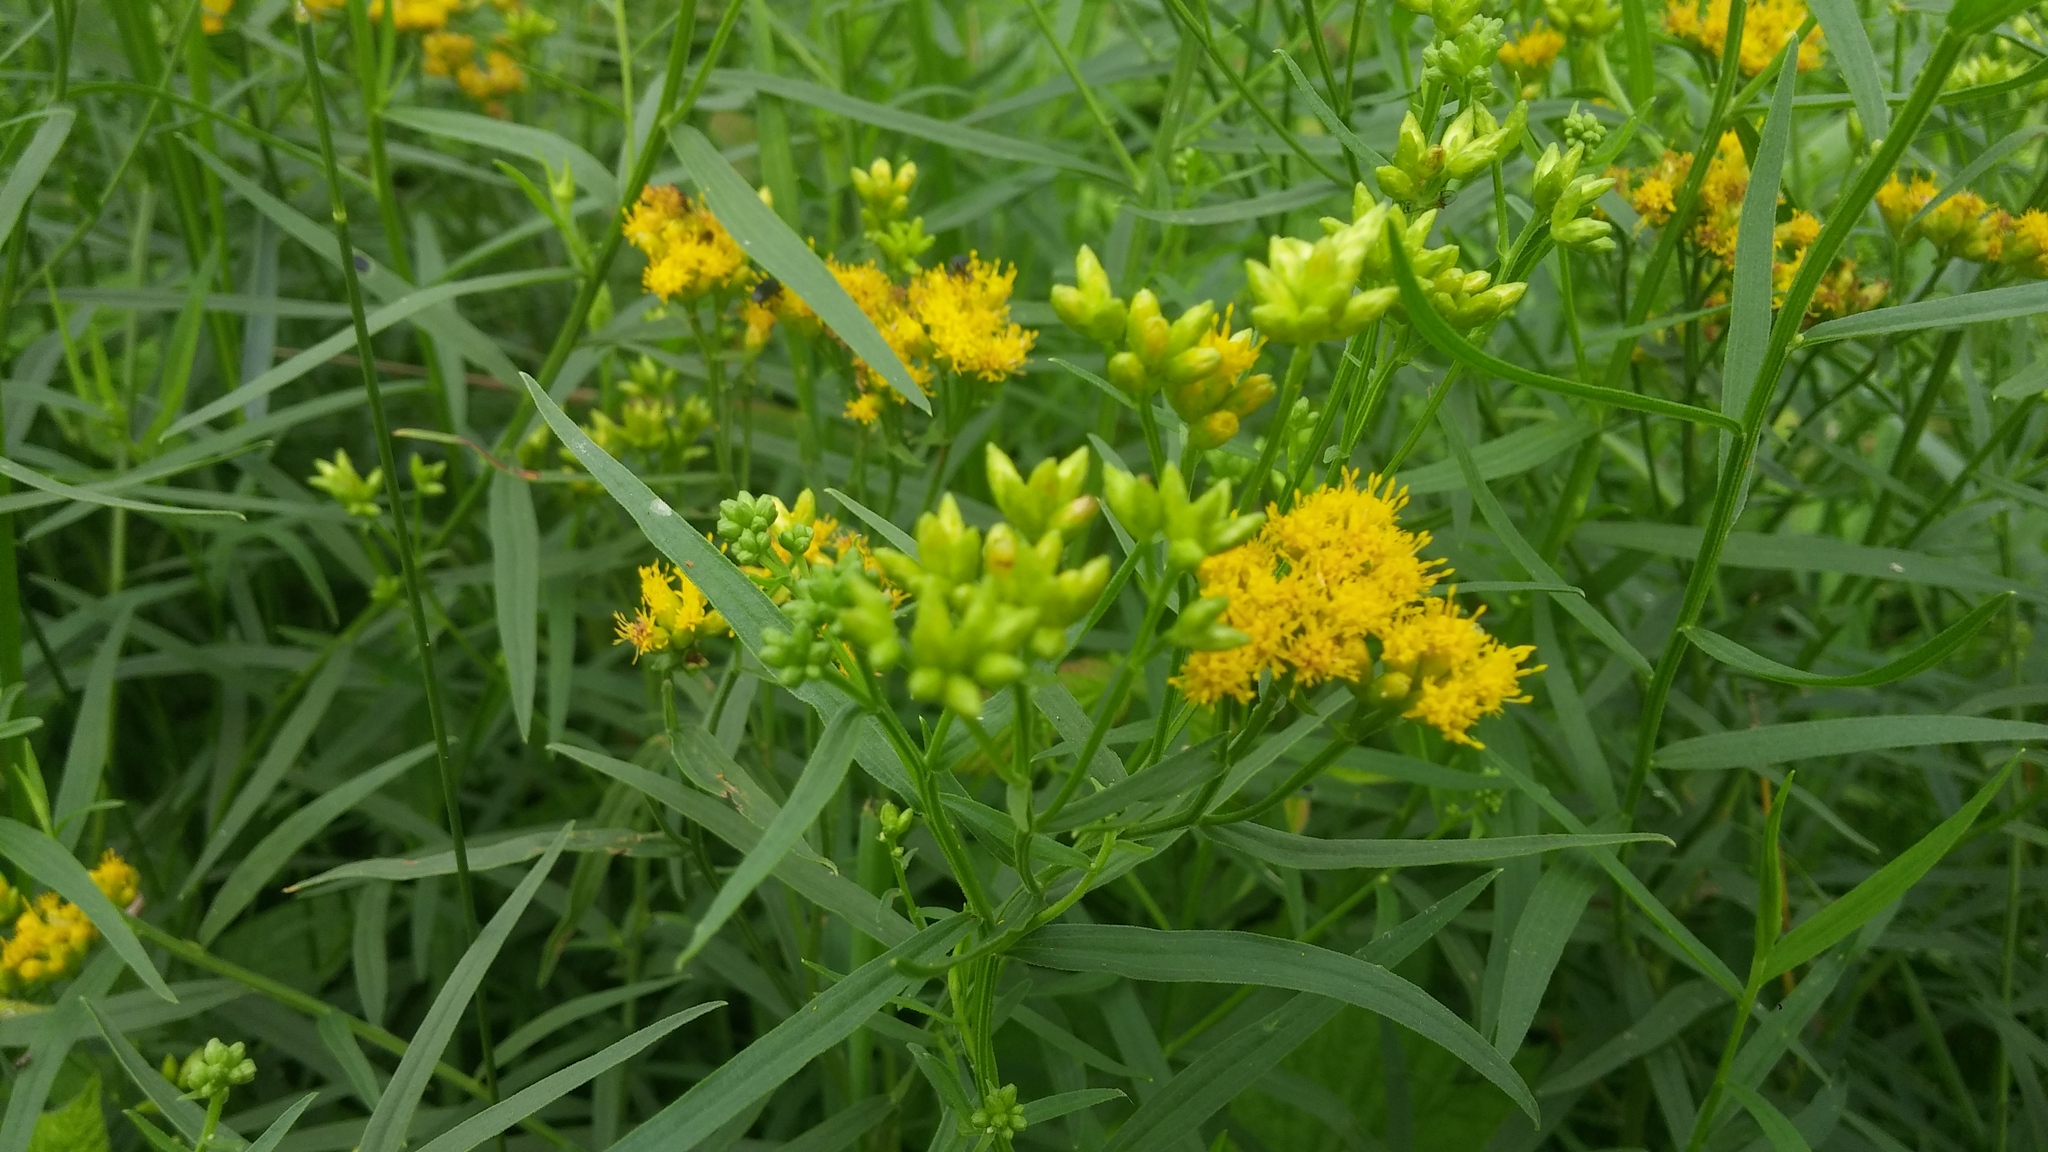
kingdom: Plantae
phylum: Tracheophyta
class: Magnoliopsida
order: Asterales
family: Asteraceae
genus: Euthamia
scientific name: Euthamia graminifolia
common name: Common goldentop
